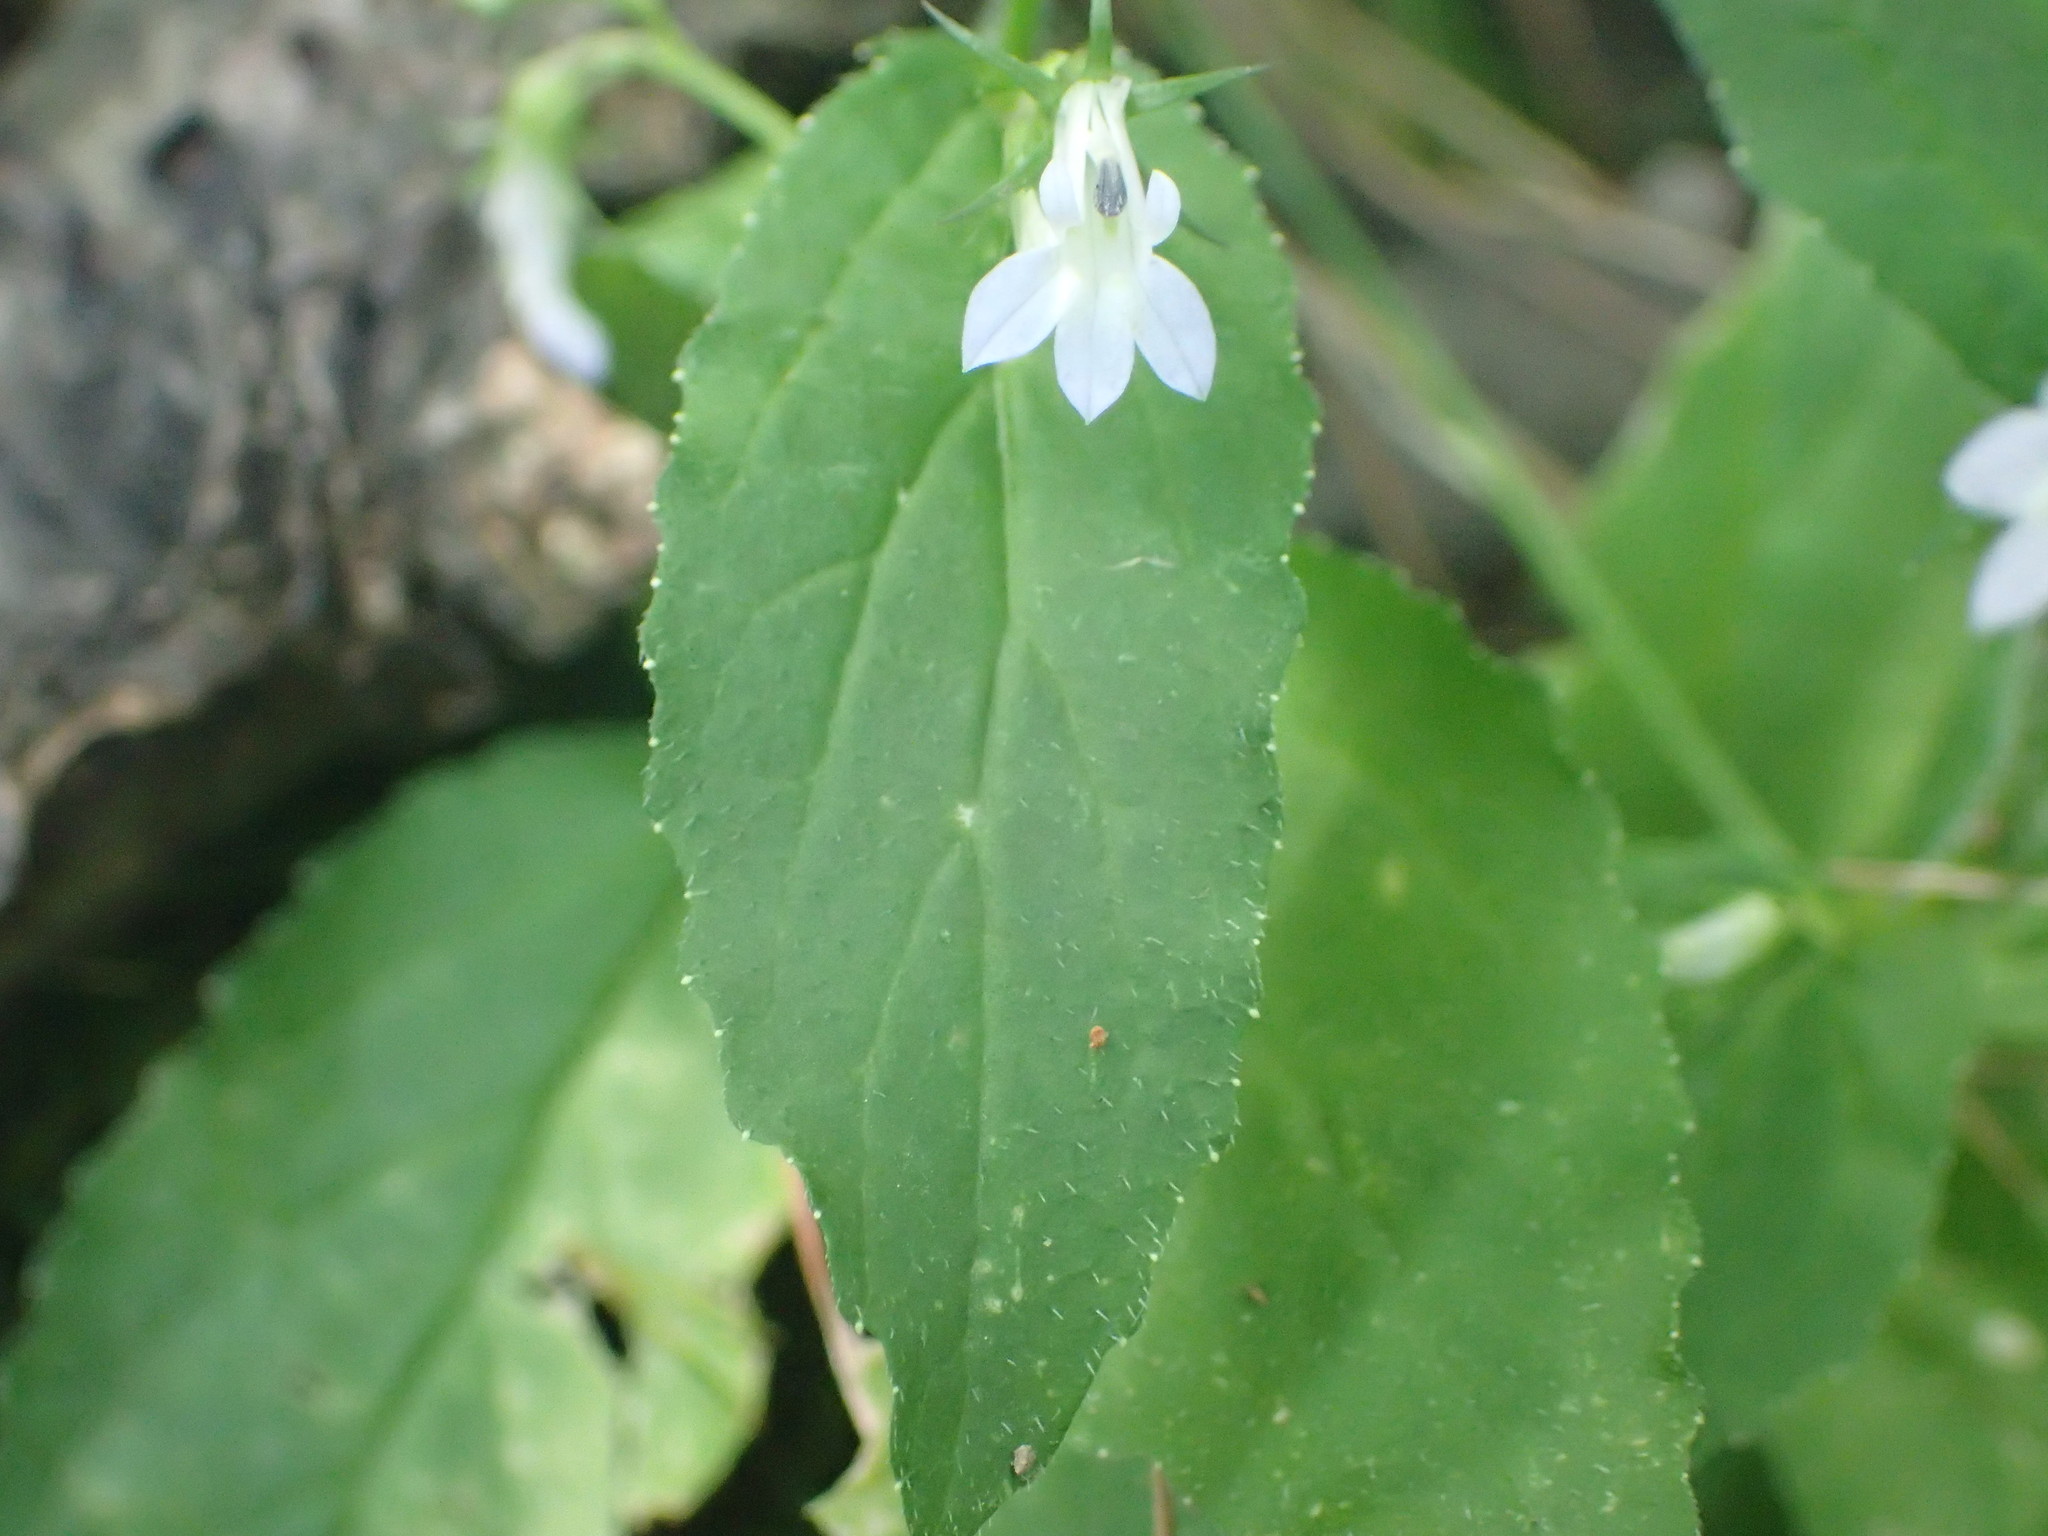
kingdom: Plantae
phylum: Tracheophyta
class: Magnoliopsida
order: Asterales
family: Campanulaceae
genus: Lobelia
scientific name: Lobelia inflata
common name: Indian tobacco
